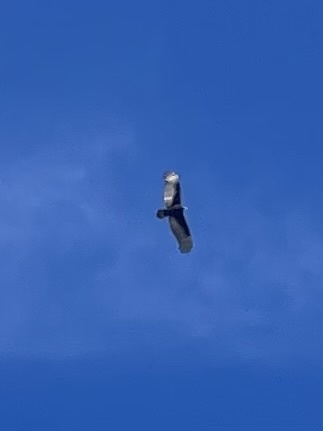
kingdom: Animalia
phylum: Chordata
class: Aves
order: Accipitriformes
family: Cathartidae
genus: Cathartes
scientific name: Cathartes aura
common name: Turkey vulture
